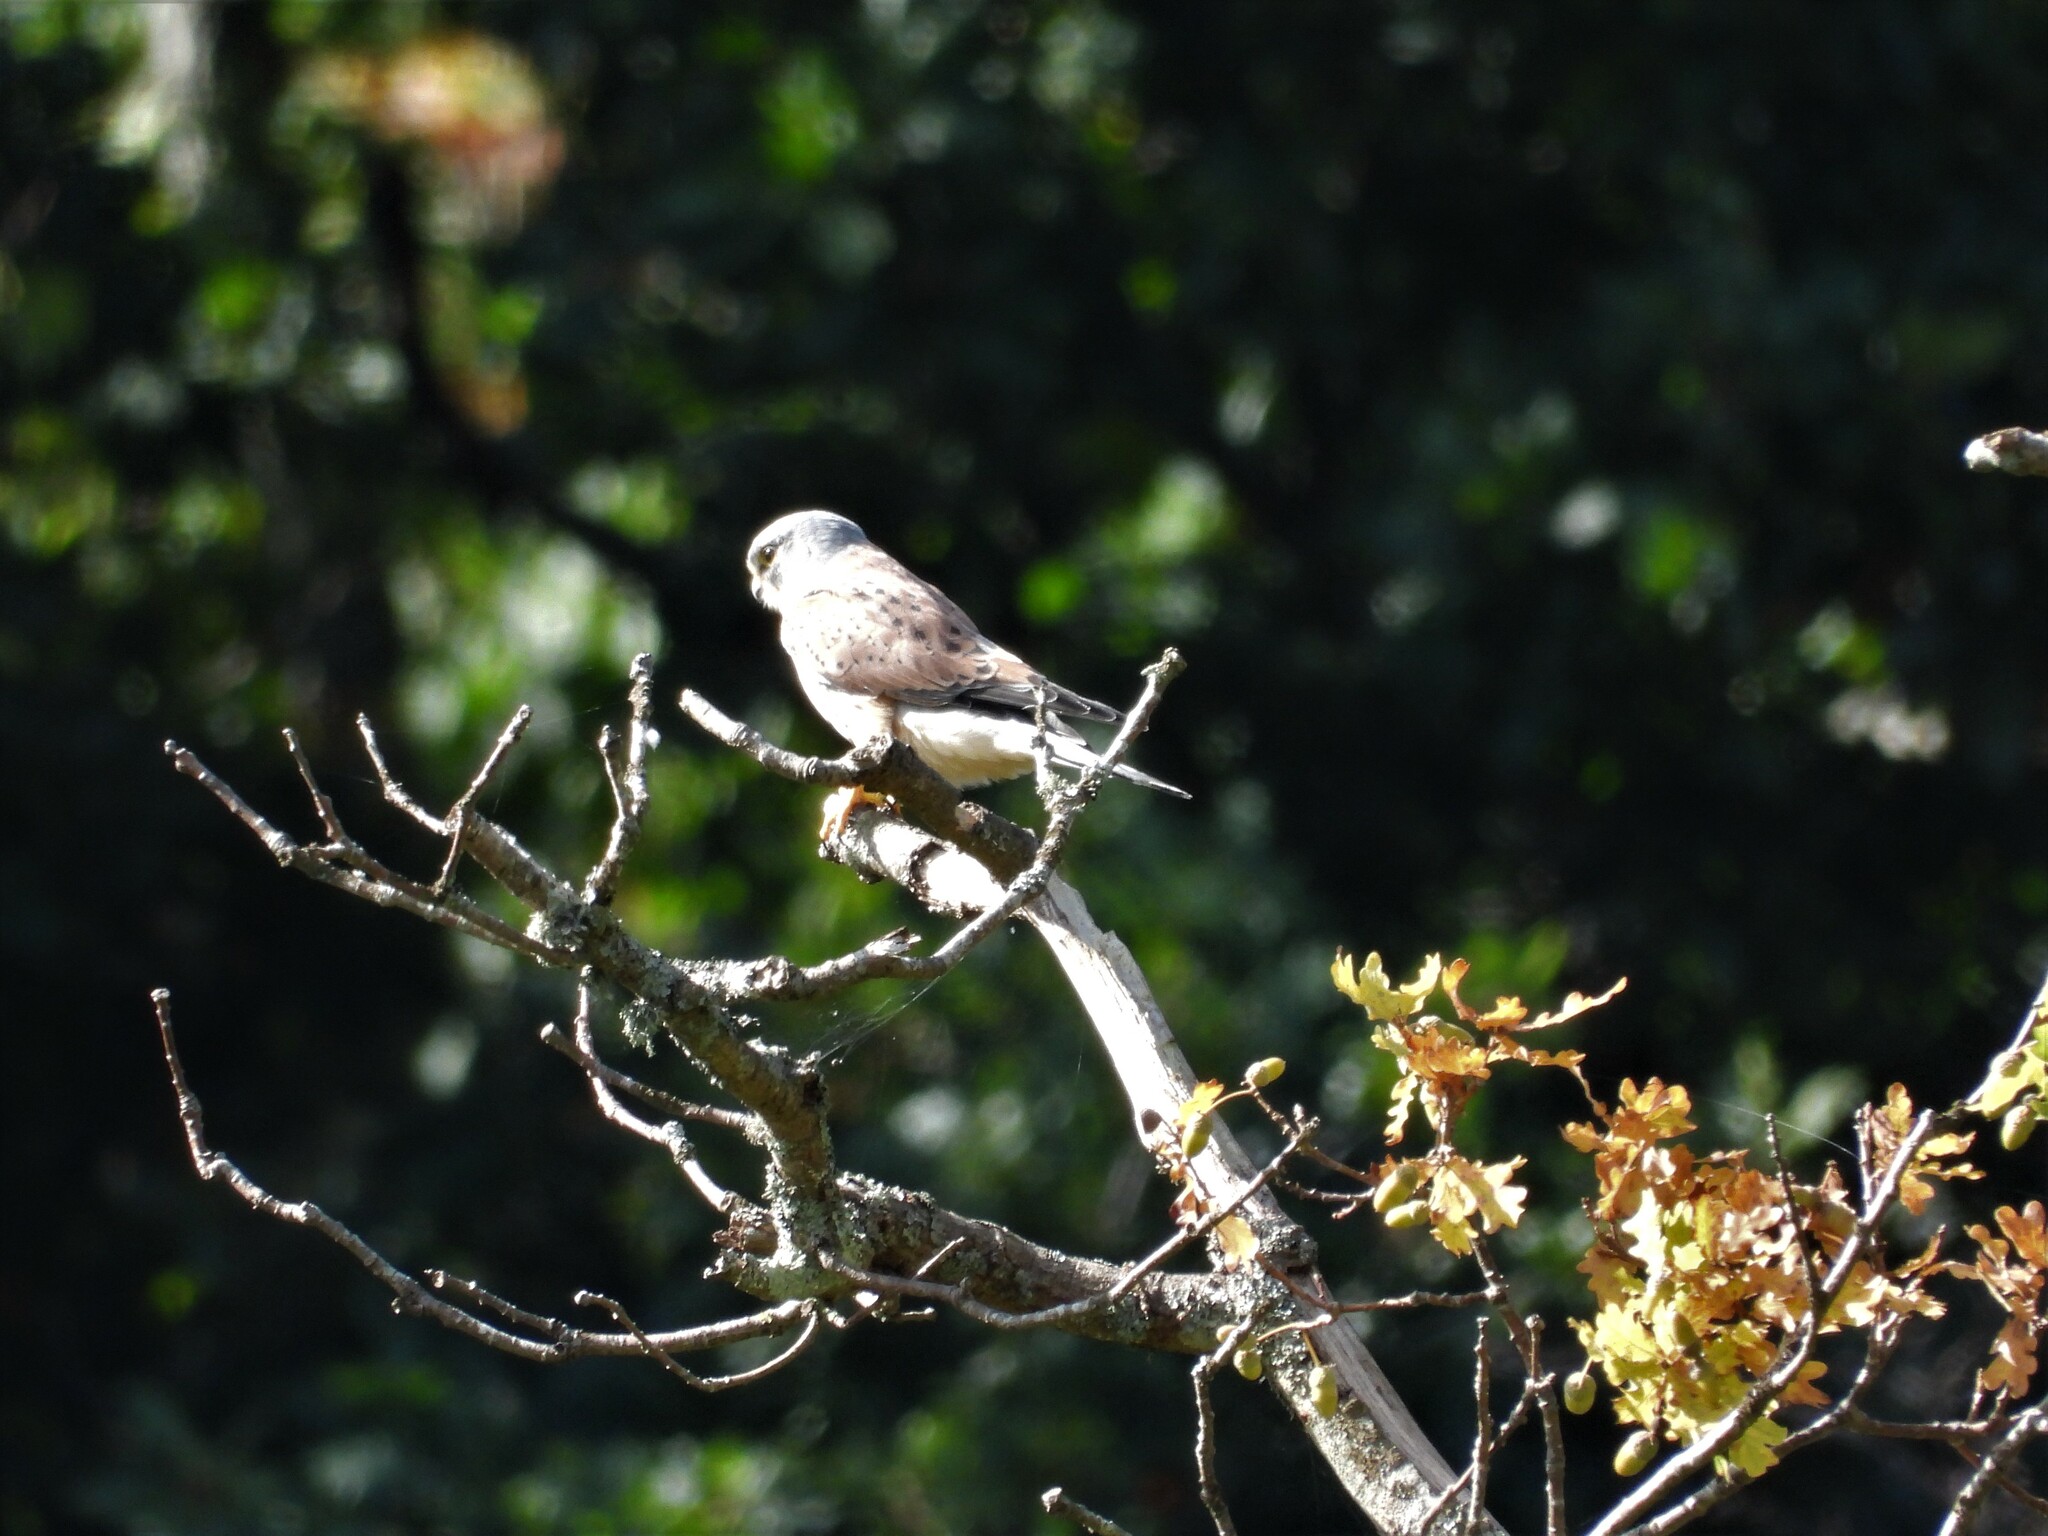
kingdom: Animalia
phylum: Chordata
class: Aves
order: Falconiformes
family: Falconidae
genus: Falco
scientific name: Falco tinnunculus
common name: Common kestrel
